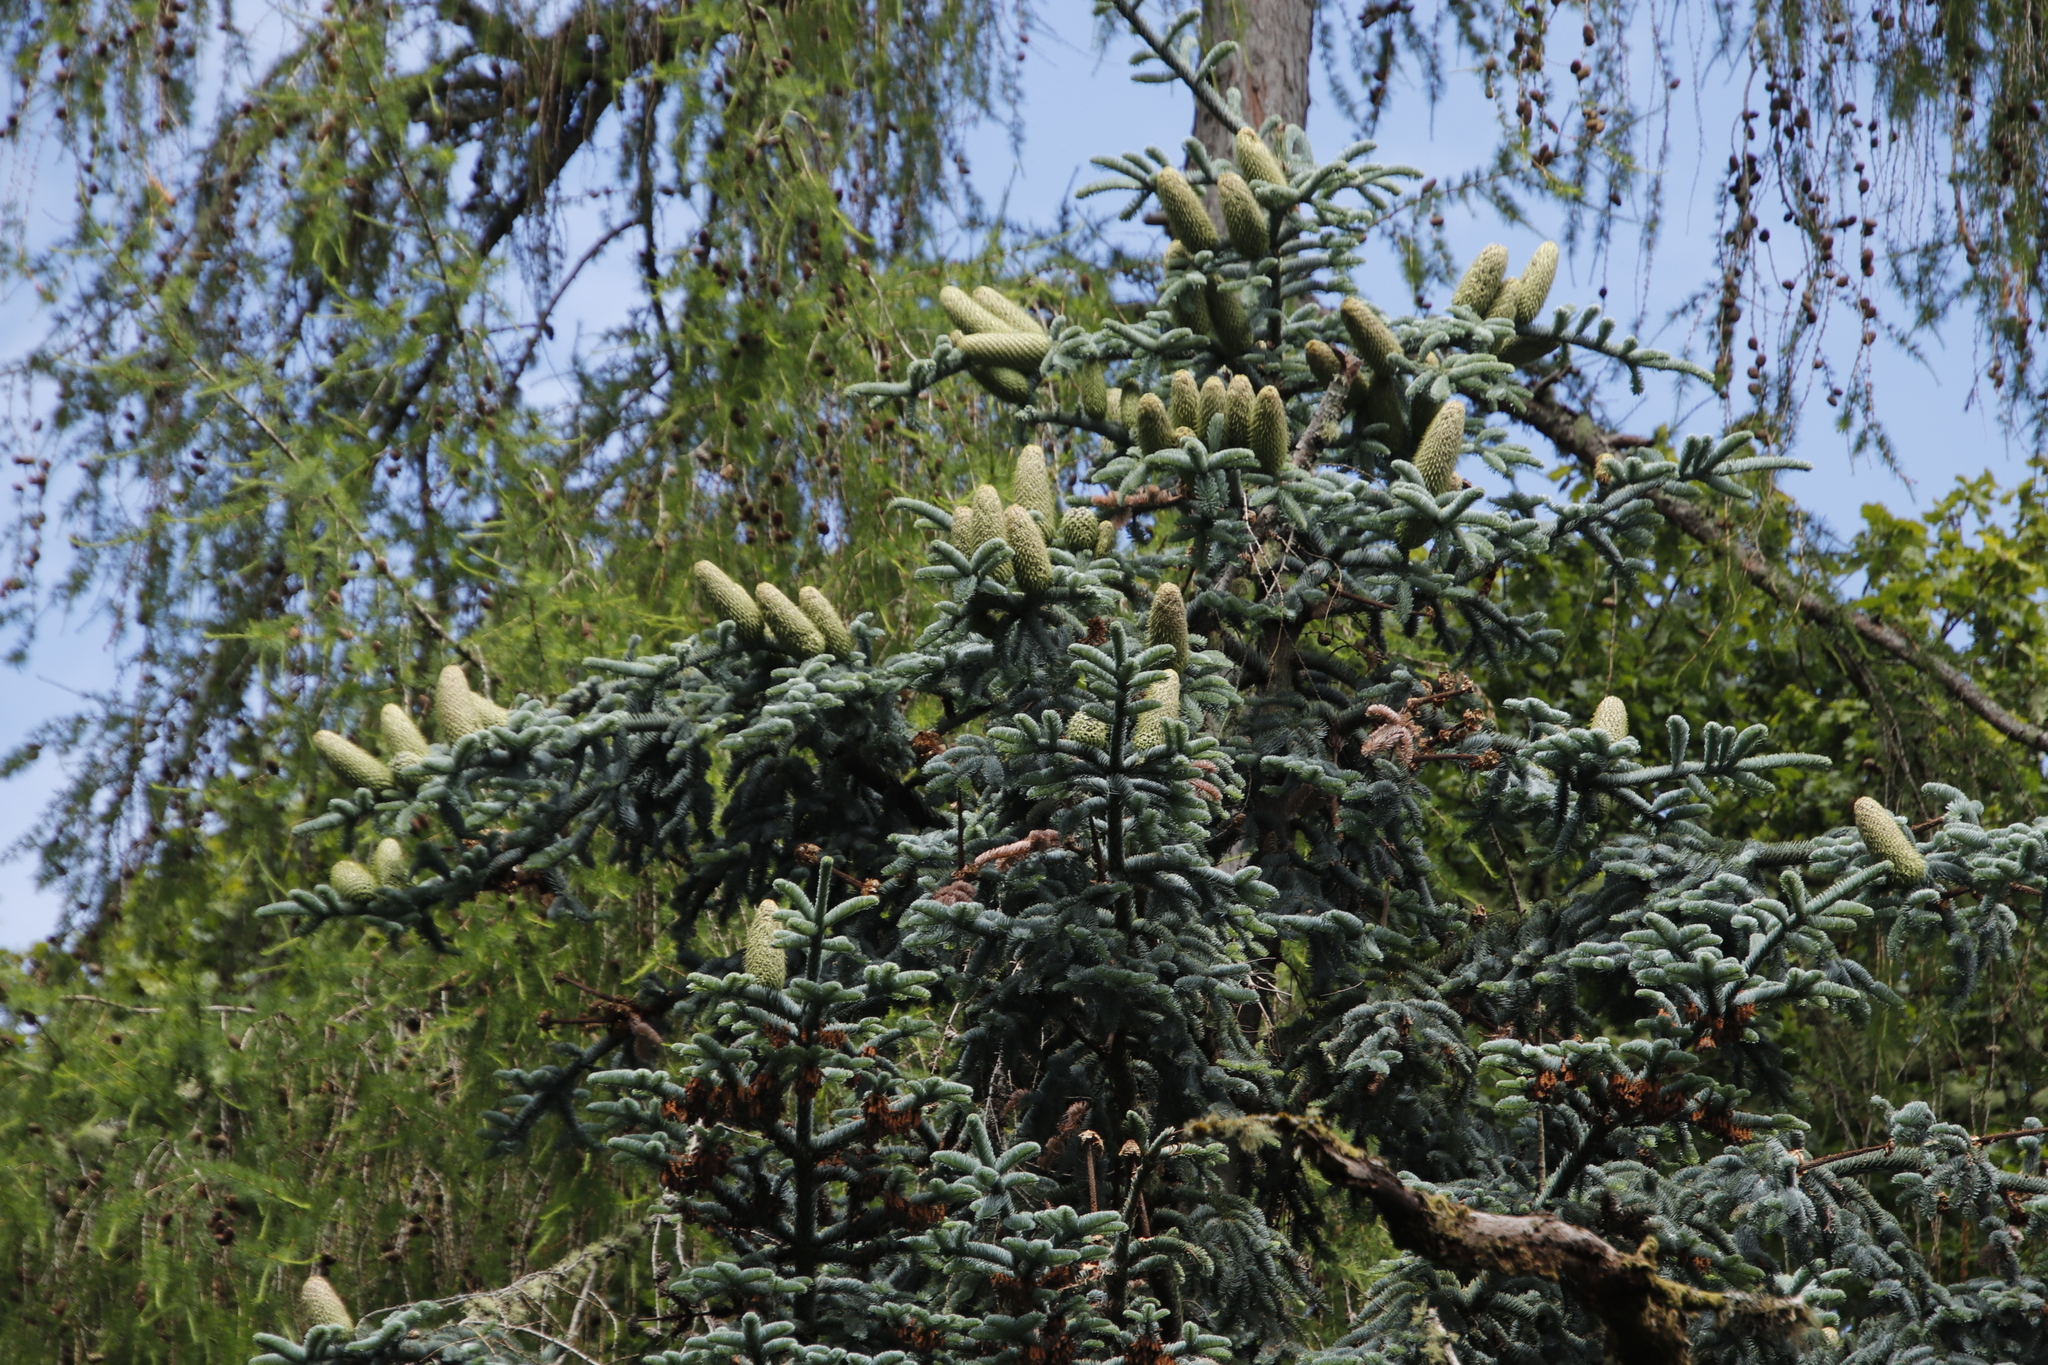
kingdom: Plantae
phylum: Tracheophyta
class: Pinopsida
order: Pinales
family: Pinaceae
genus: Abies
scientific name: Abies procera
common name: Noble fir
